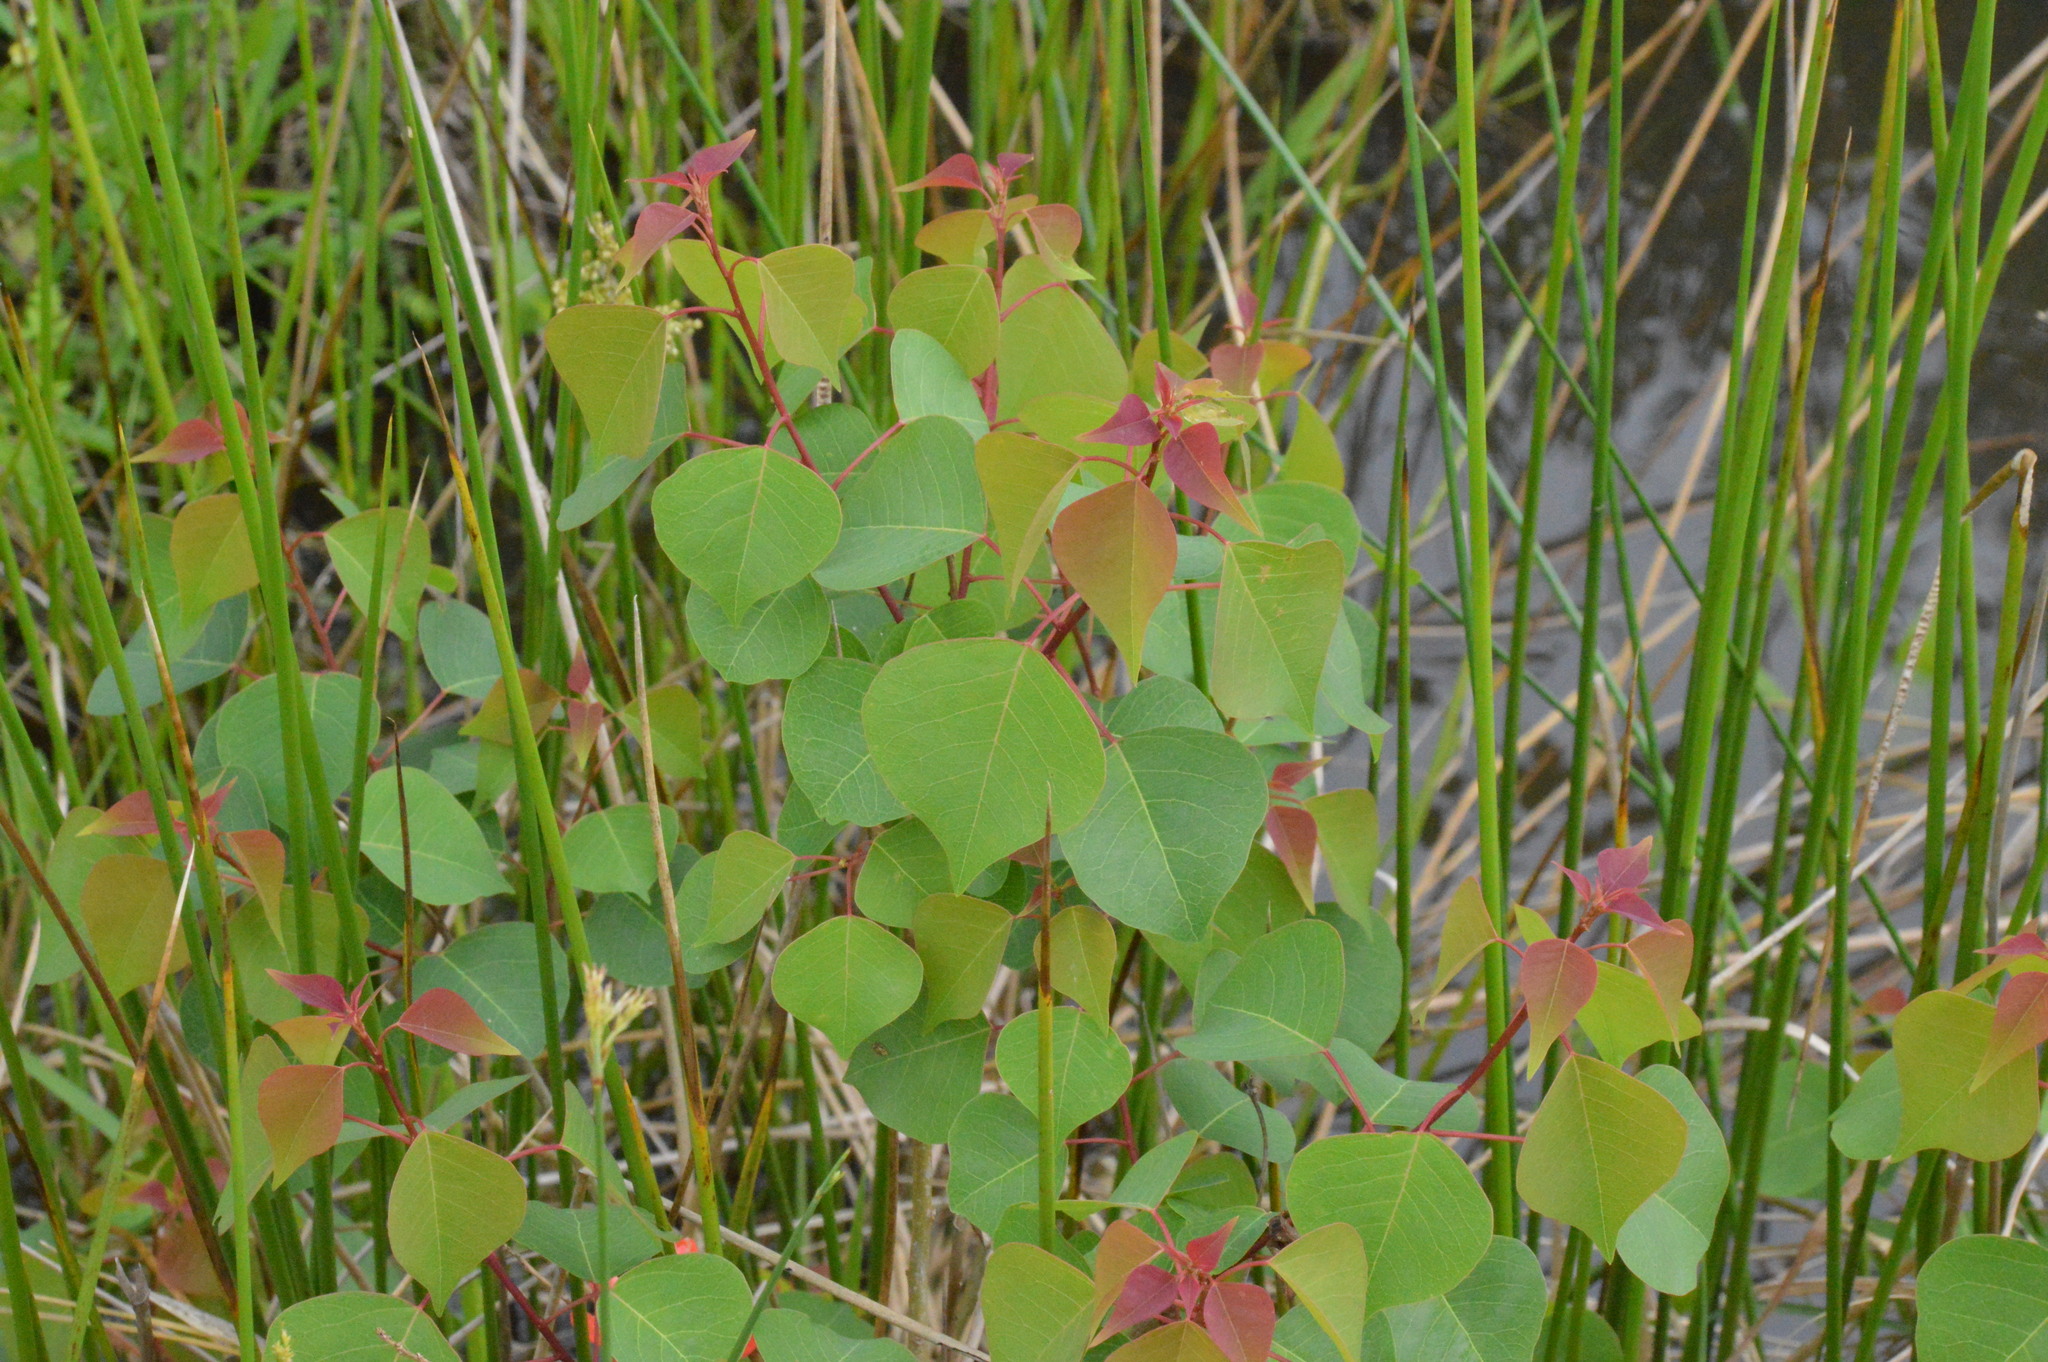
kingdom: Plantae
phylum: Tracheophyta
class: Magnoliopsida
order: Malpighiales
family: Euphorbiaceae
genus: Triadica
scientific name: Triadica sebifera
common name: Chinese tallow
